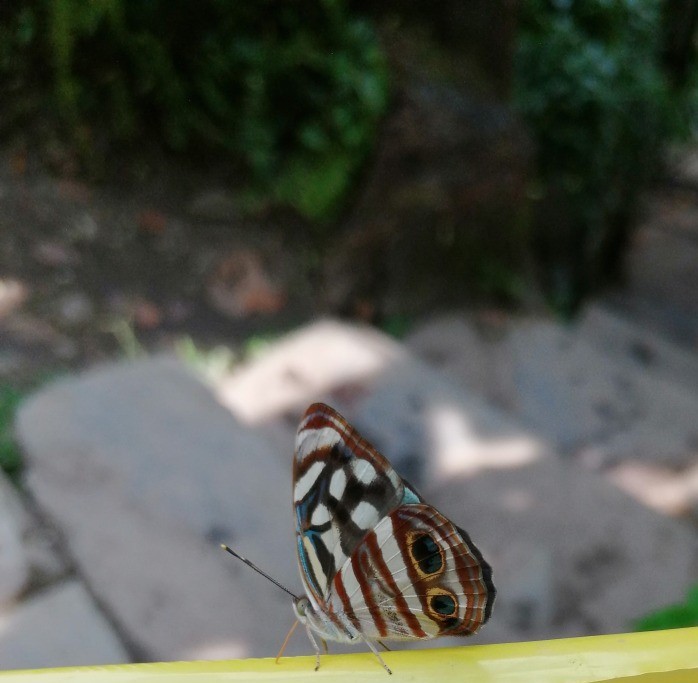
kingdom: Animalia
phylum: Arthropoda
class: Insecta
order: Lepidoptera
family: Nymphalidae
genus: Dynamine
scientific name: Dynamine mylitta
